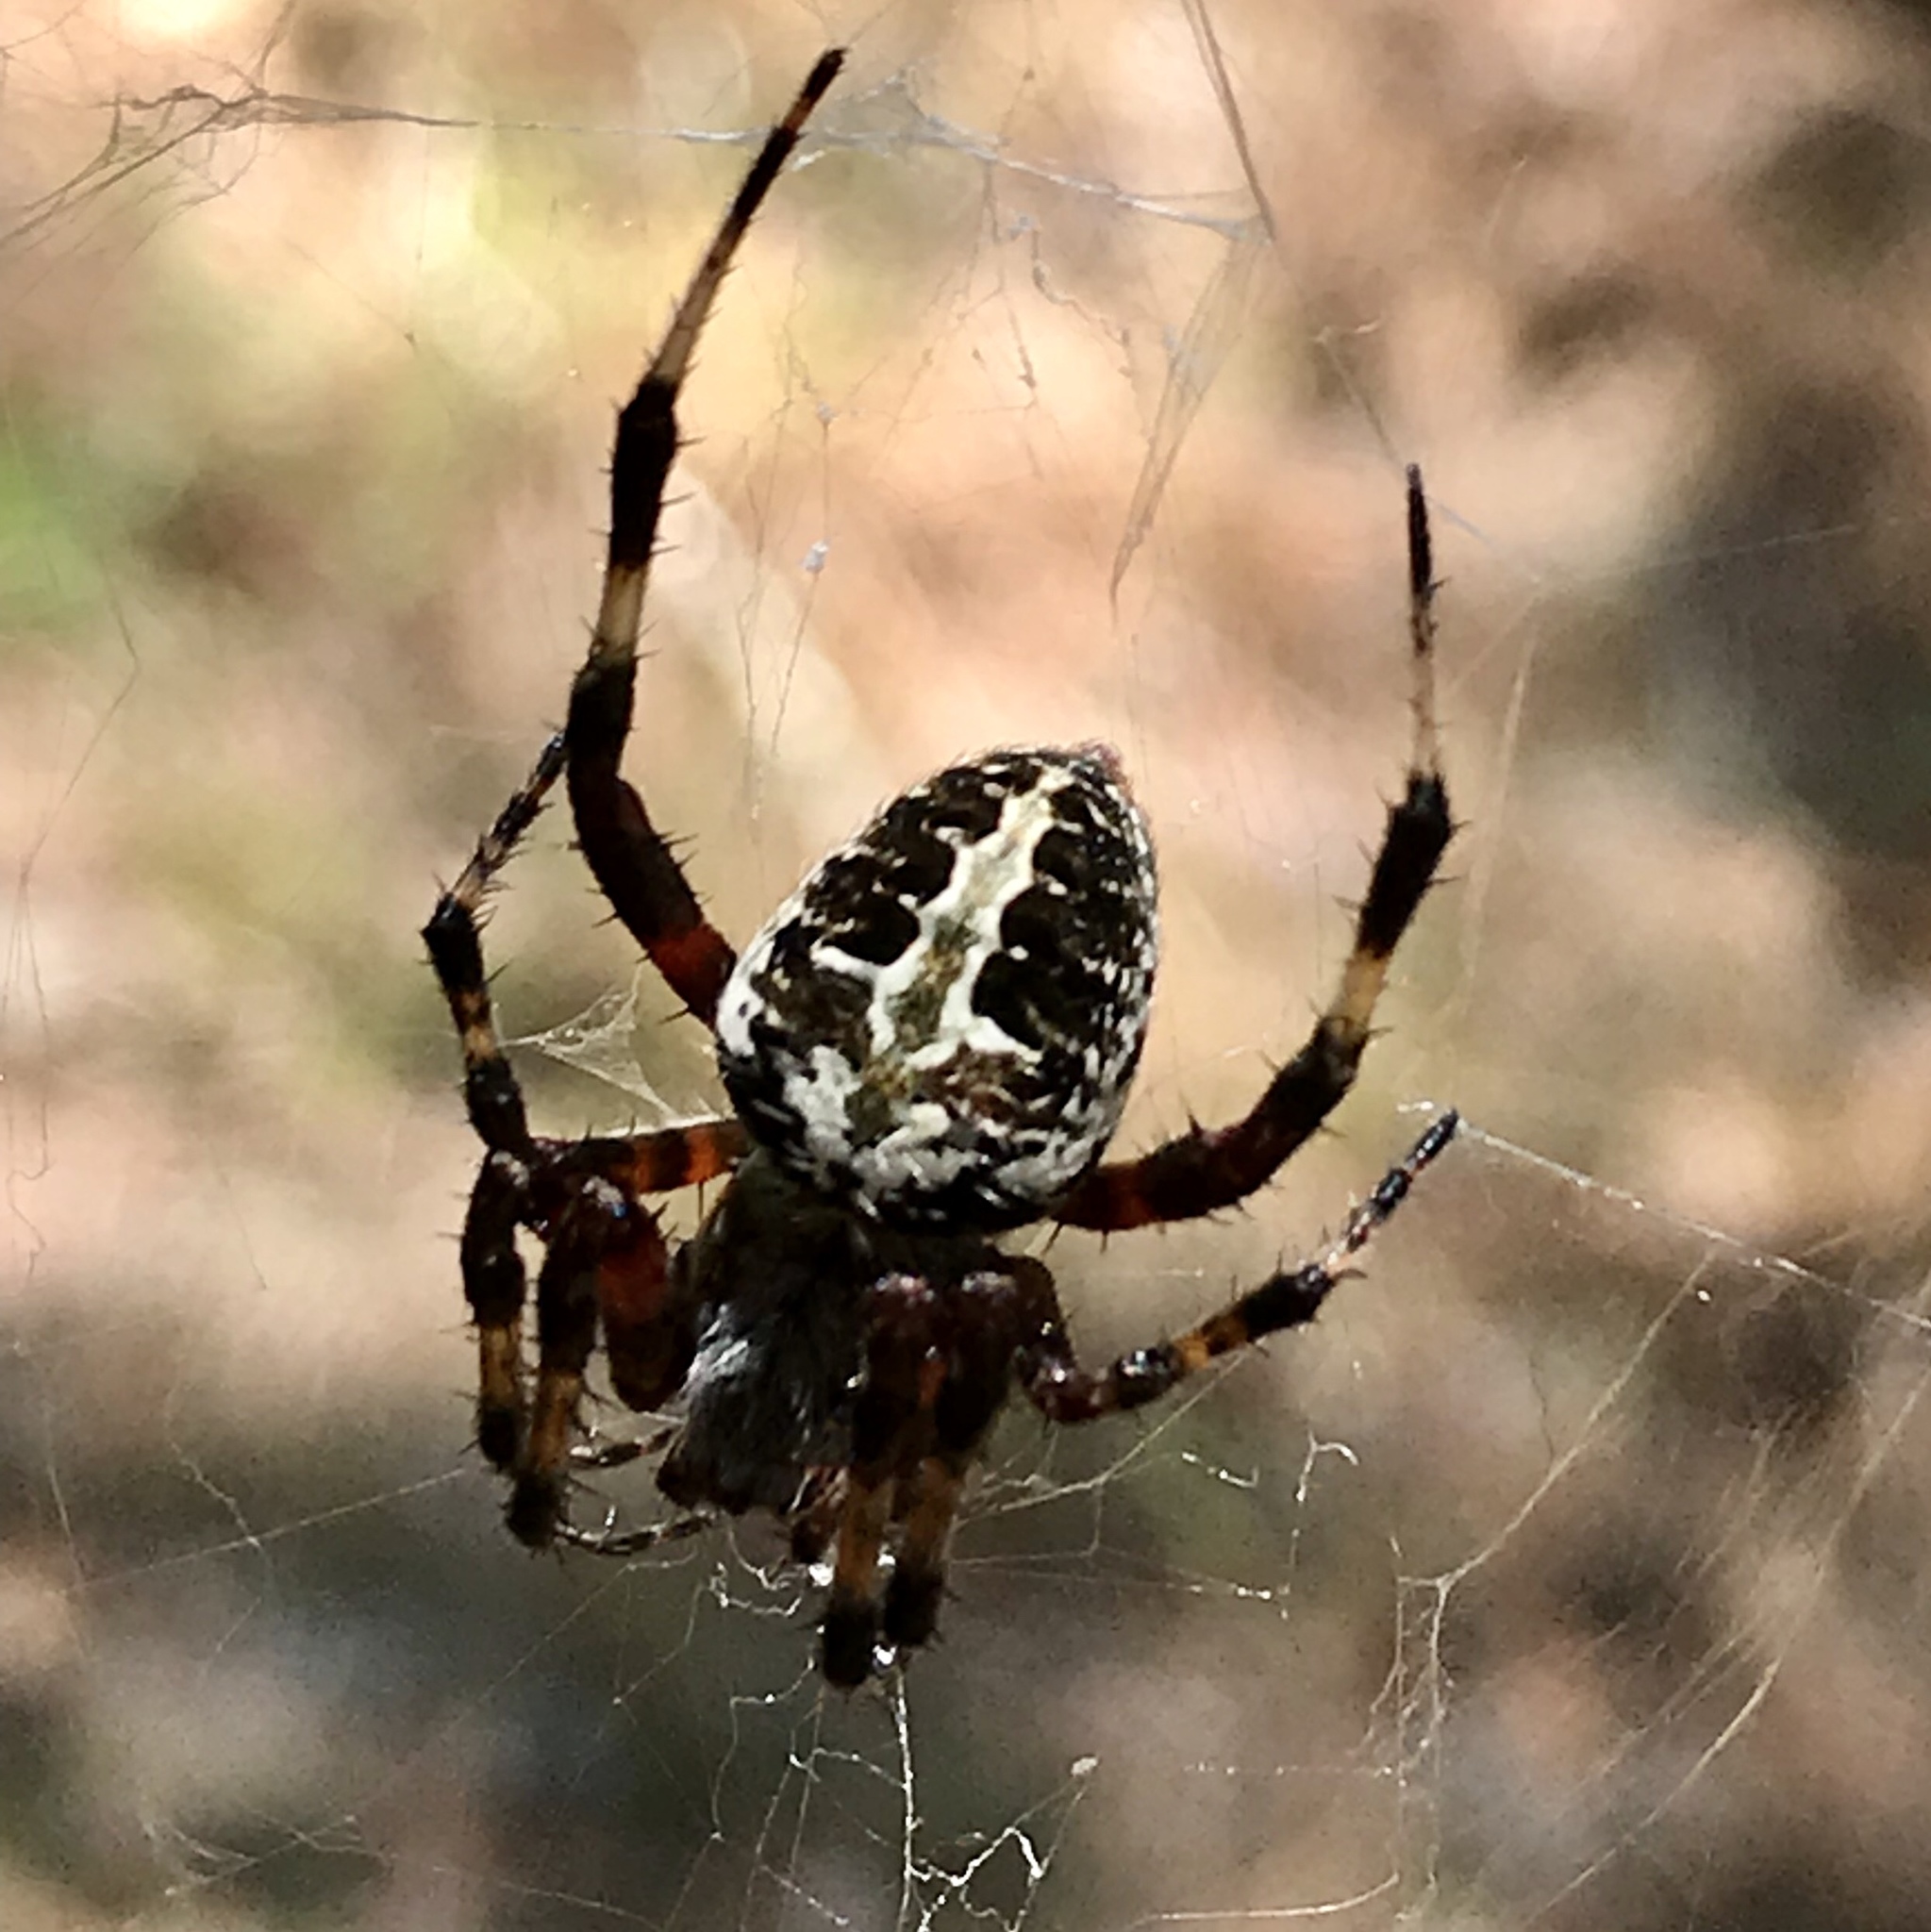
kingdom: Animalia
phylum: Arthropoda
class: Arachnida
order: Araneae
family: Araneidae
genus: Neoscona
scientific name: Neoscona domiciliorum
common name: Red-femured spotted orbweaver
